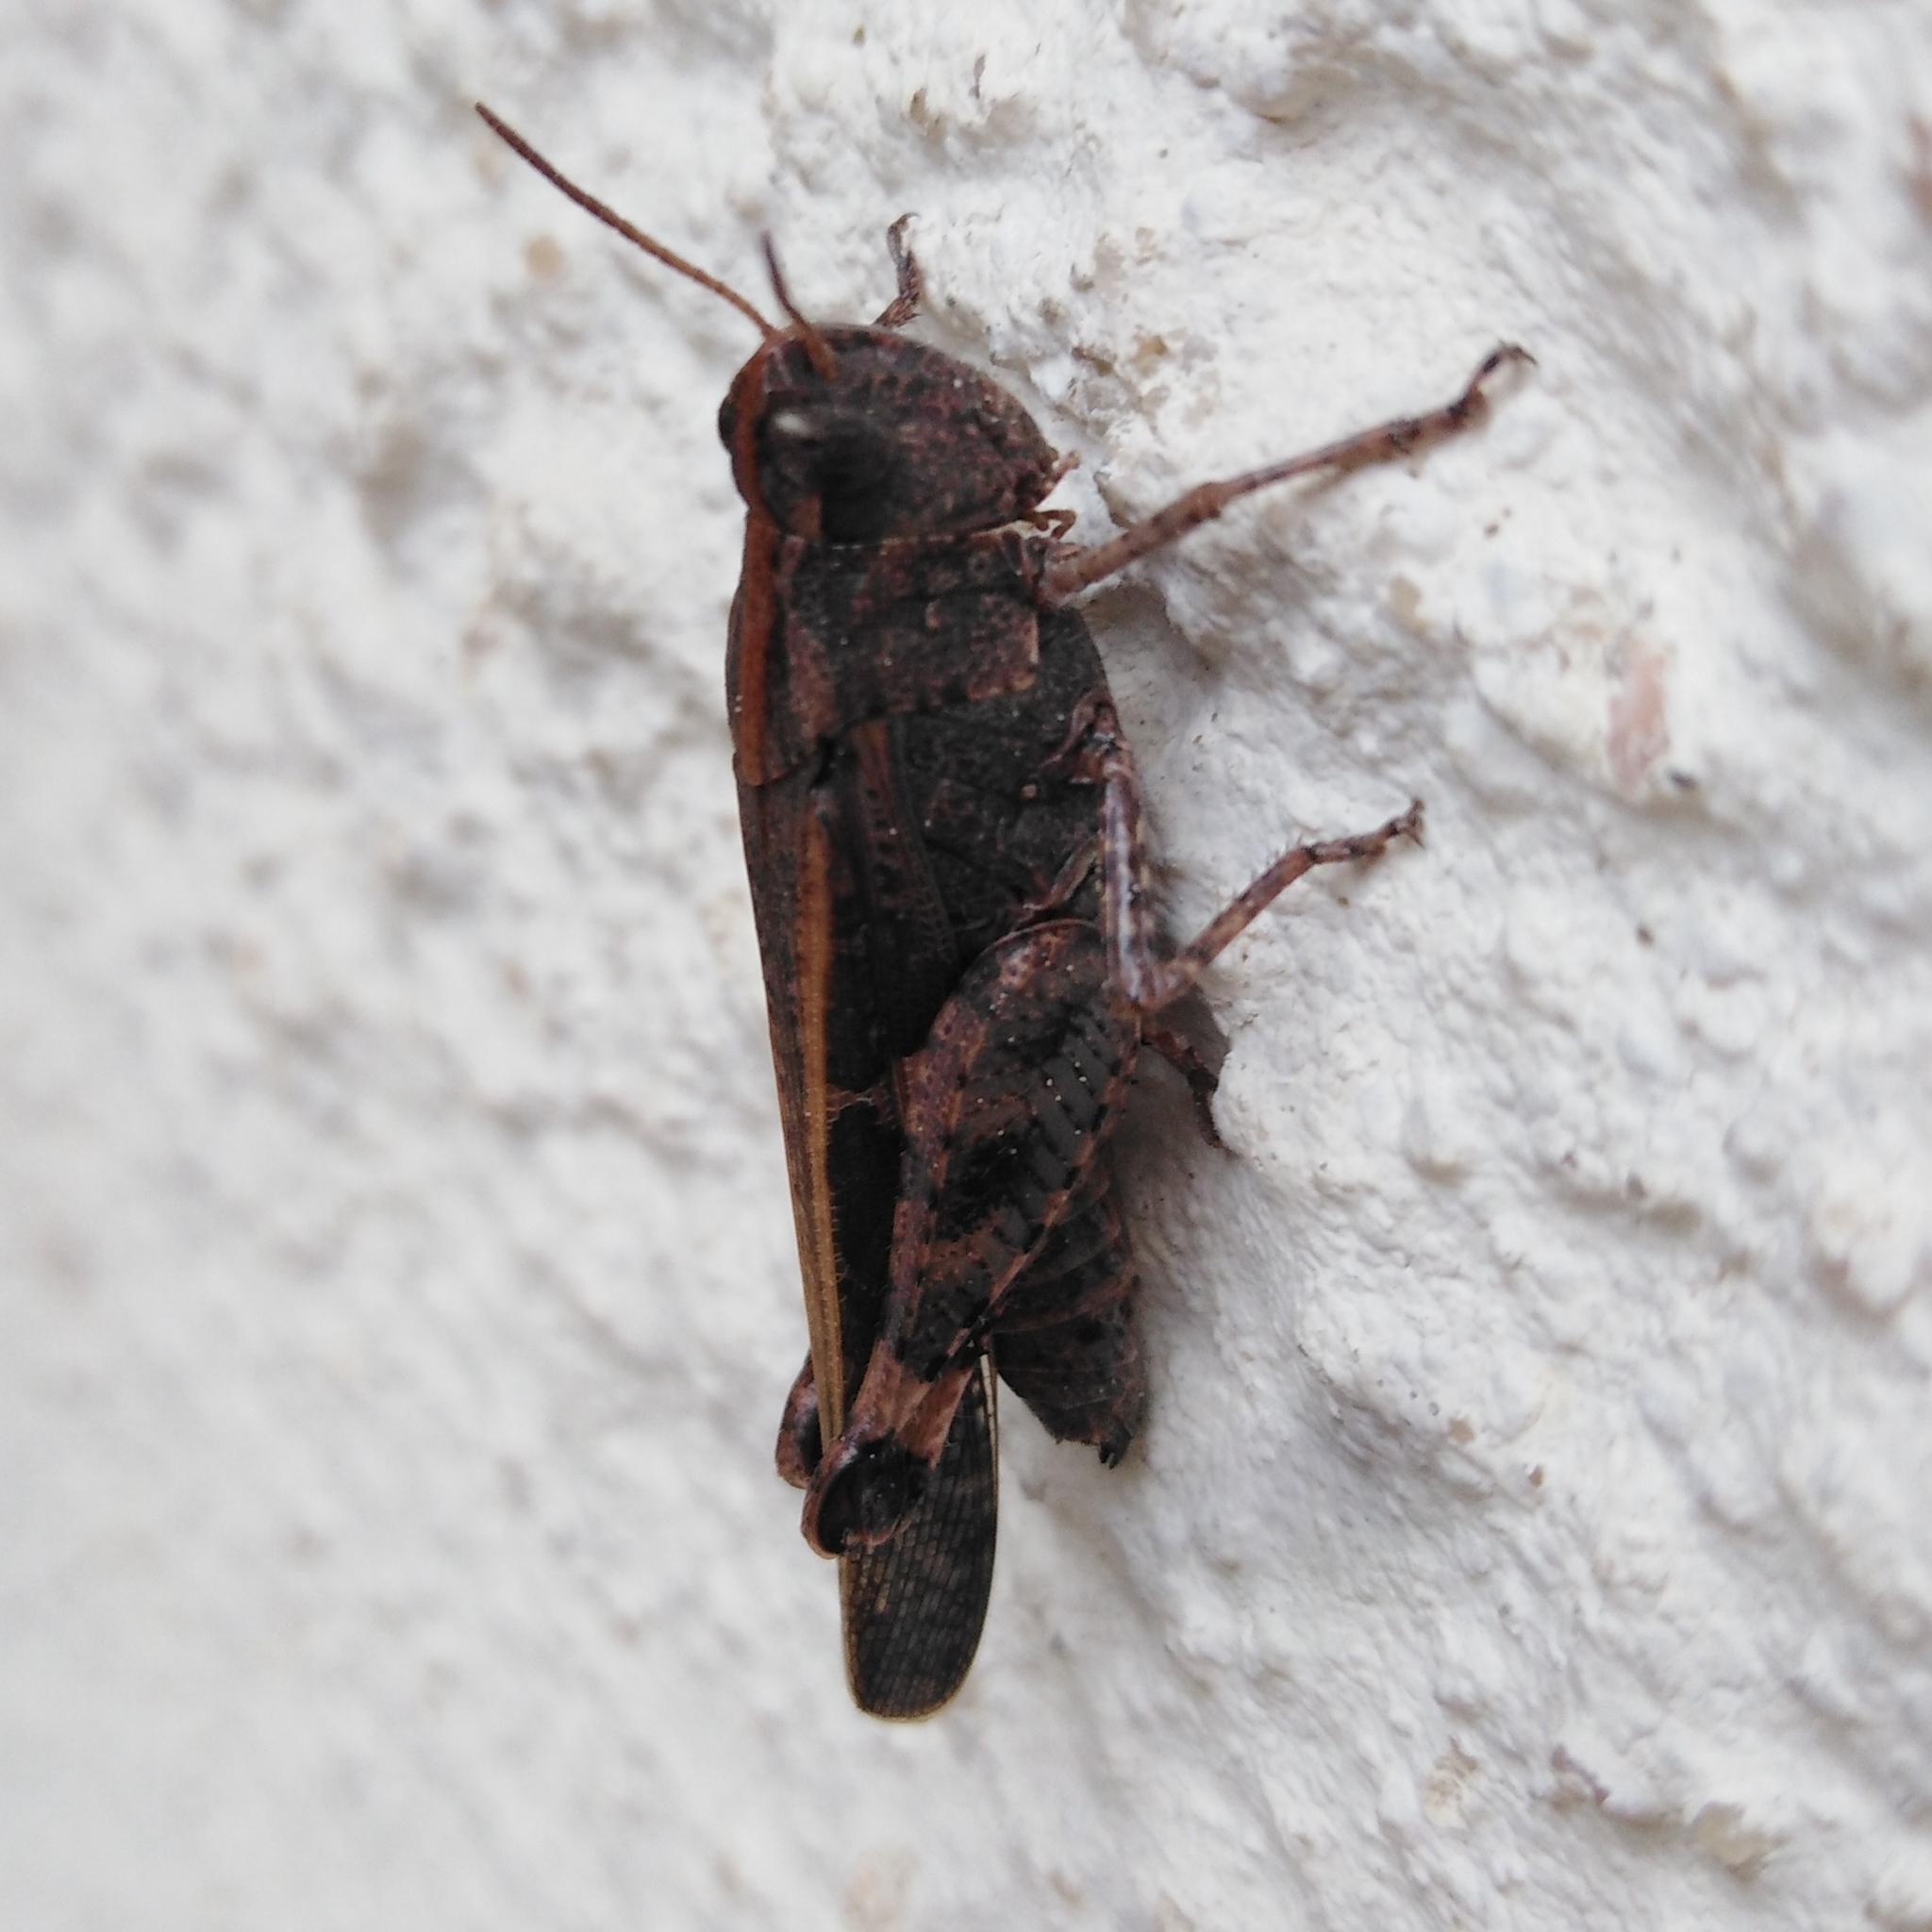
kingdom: Animalia
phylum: Arthropoda
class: Insecta
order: Orthoptera
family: Acrididae
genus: Aiolopus
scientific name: Aiolopus strepens
